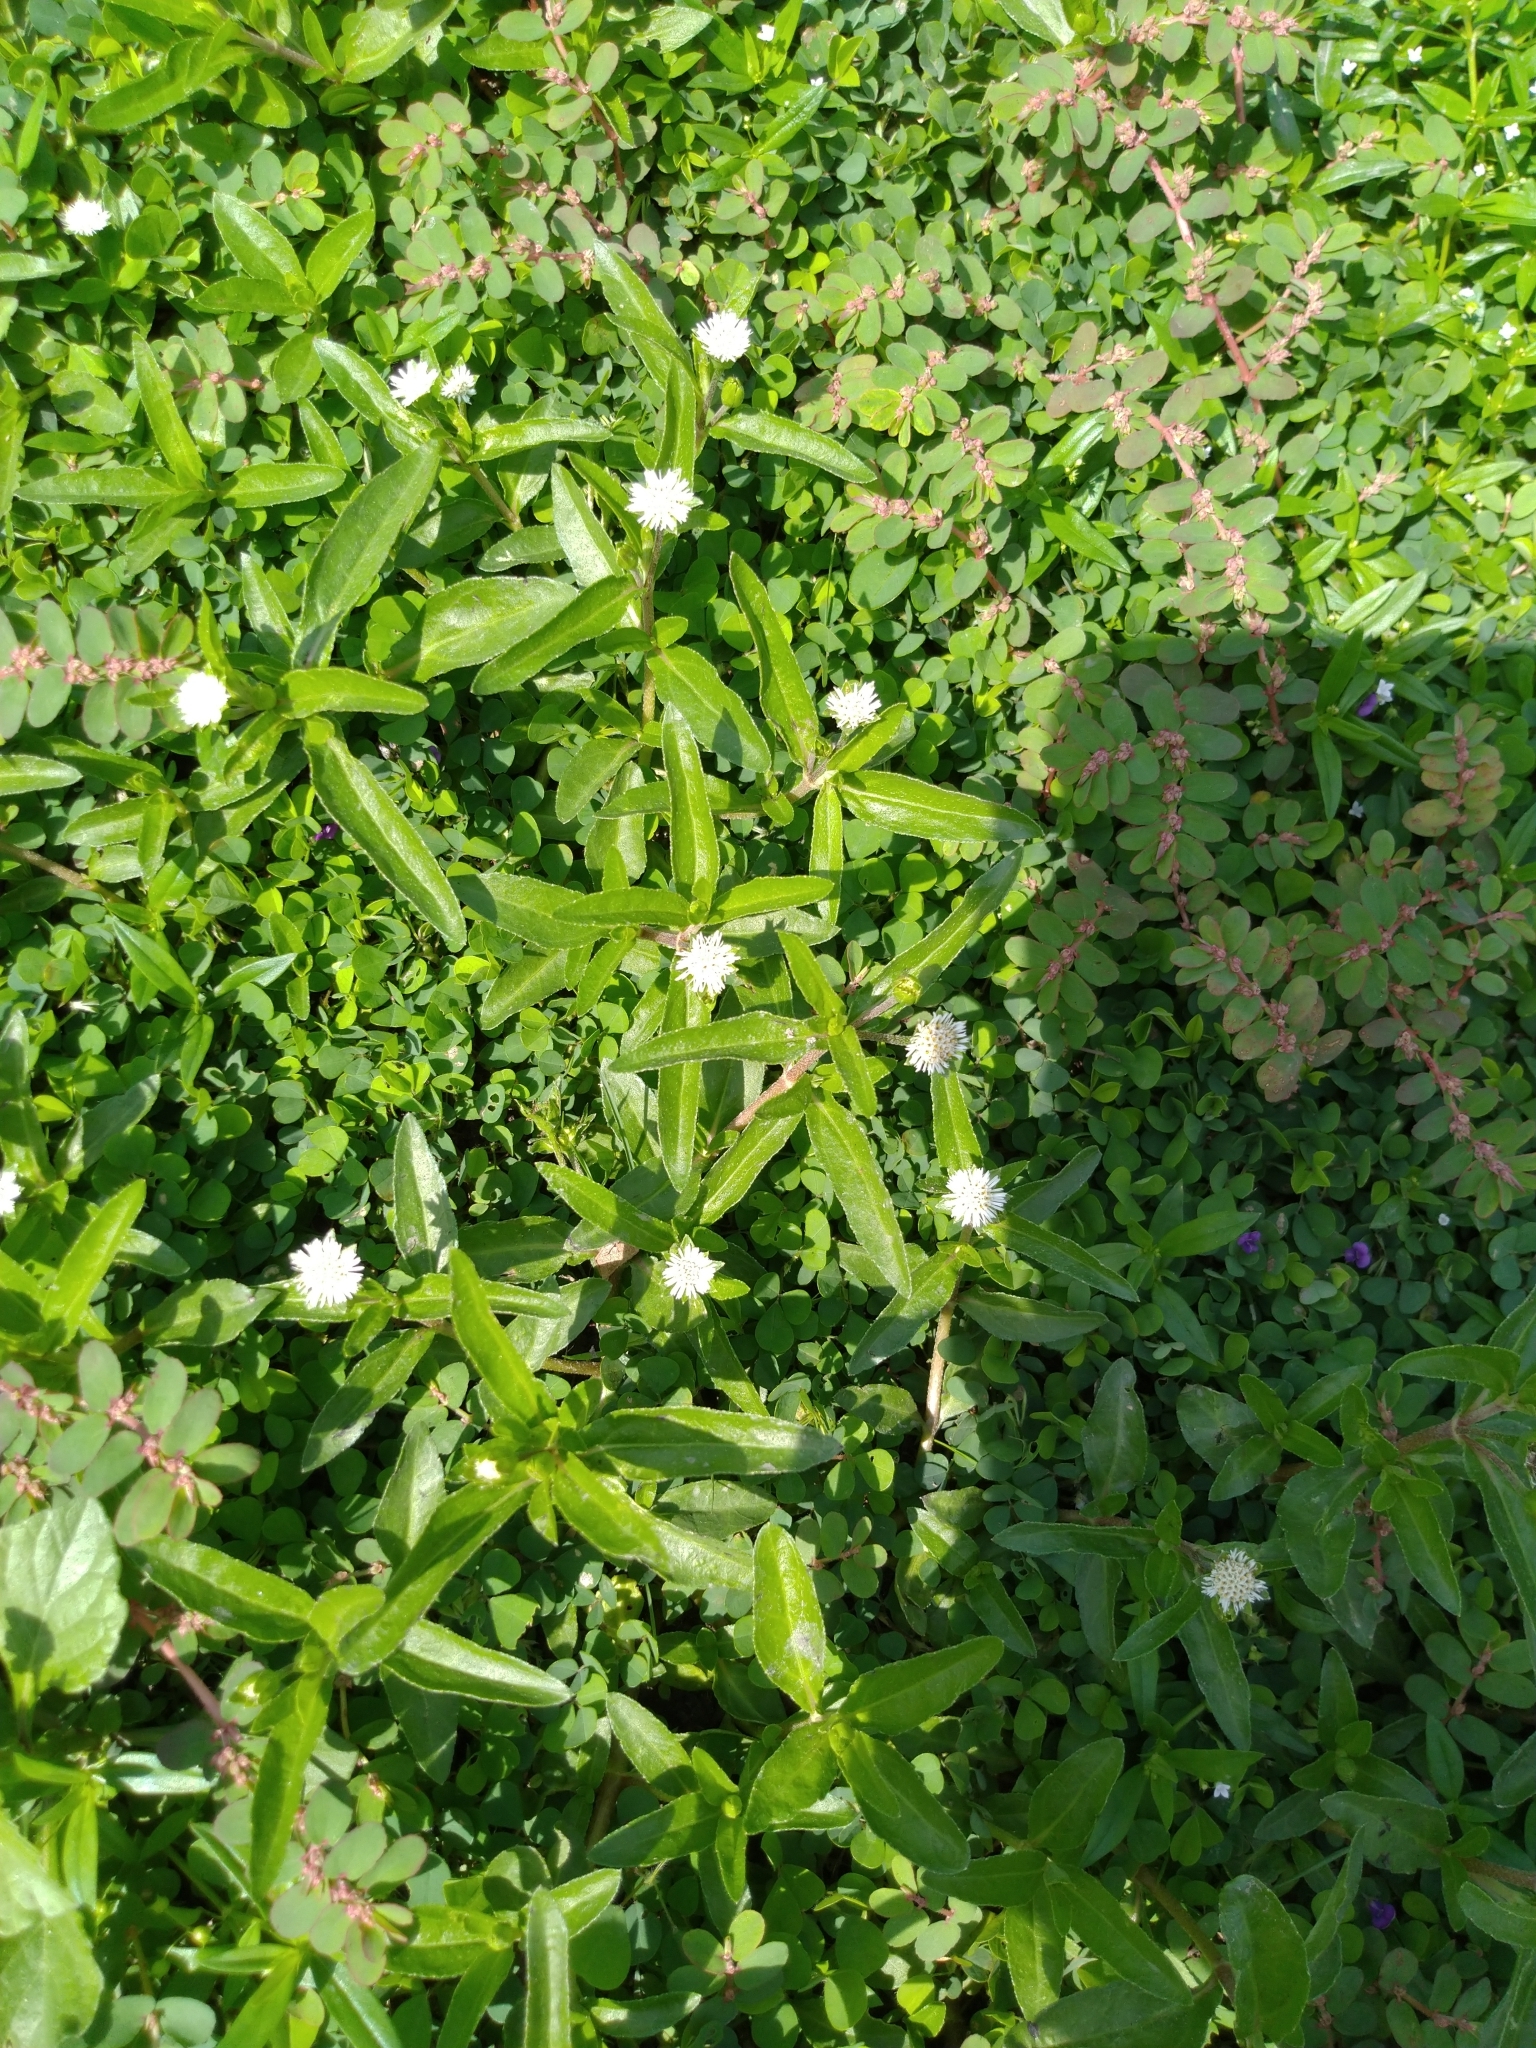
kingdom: Plantae
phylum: Tracheophyta
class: Magnoliopsida
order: Asterales
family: Asteraceae
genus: Eclipta
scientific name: Eclipta prostrata
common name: False daisy
